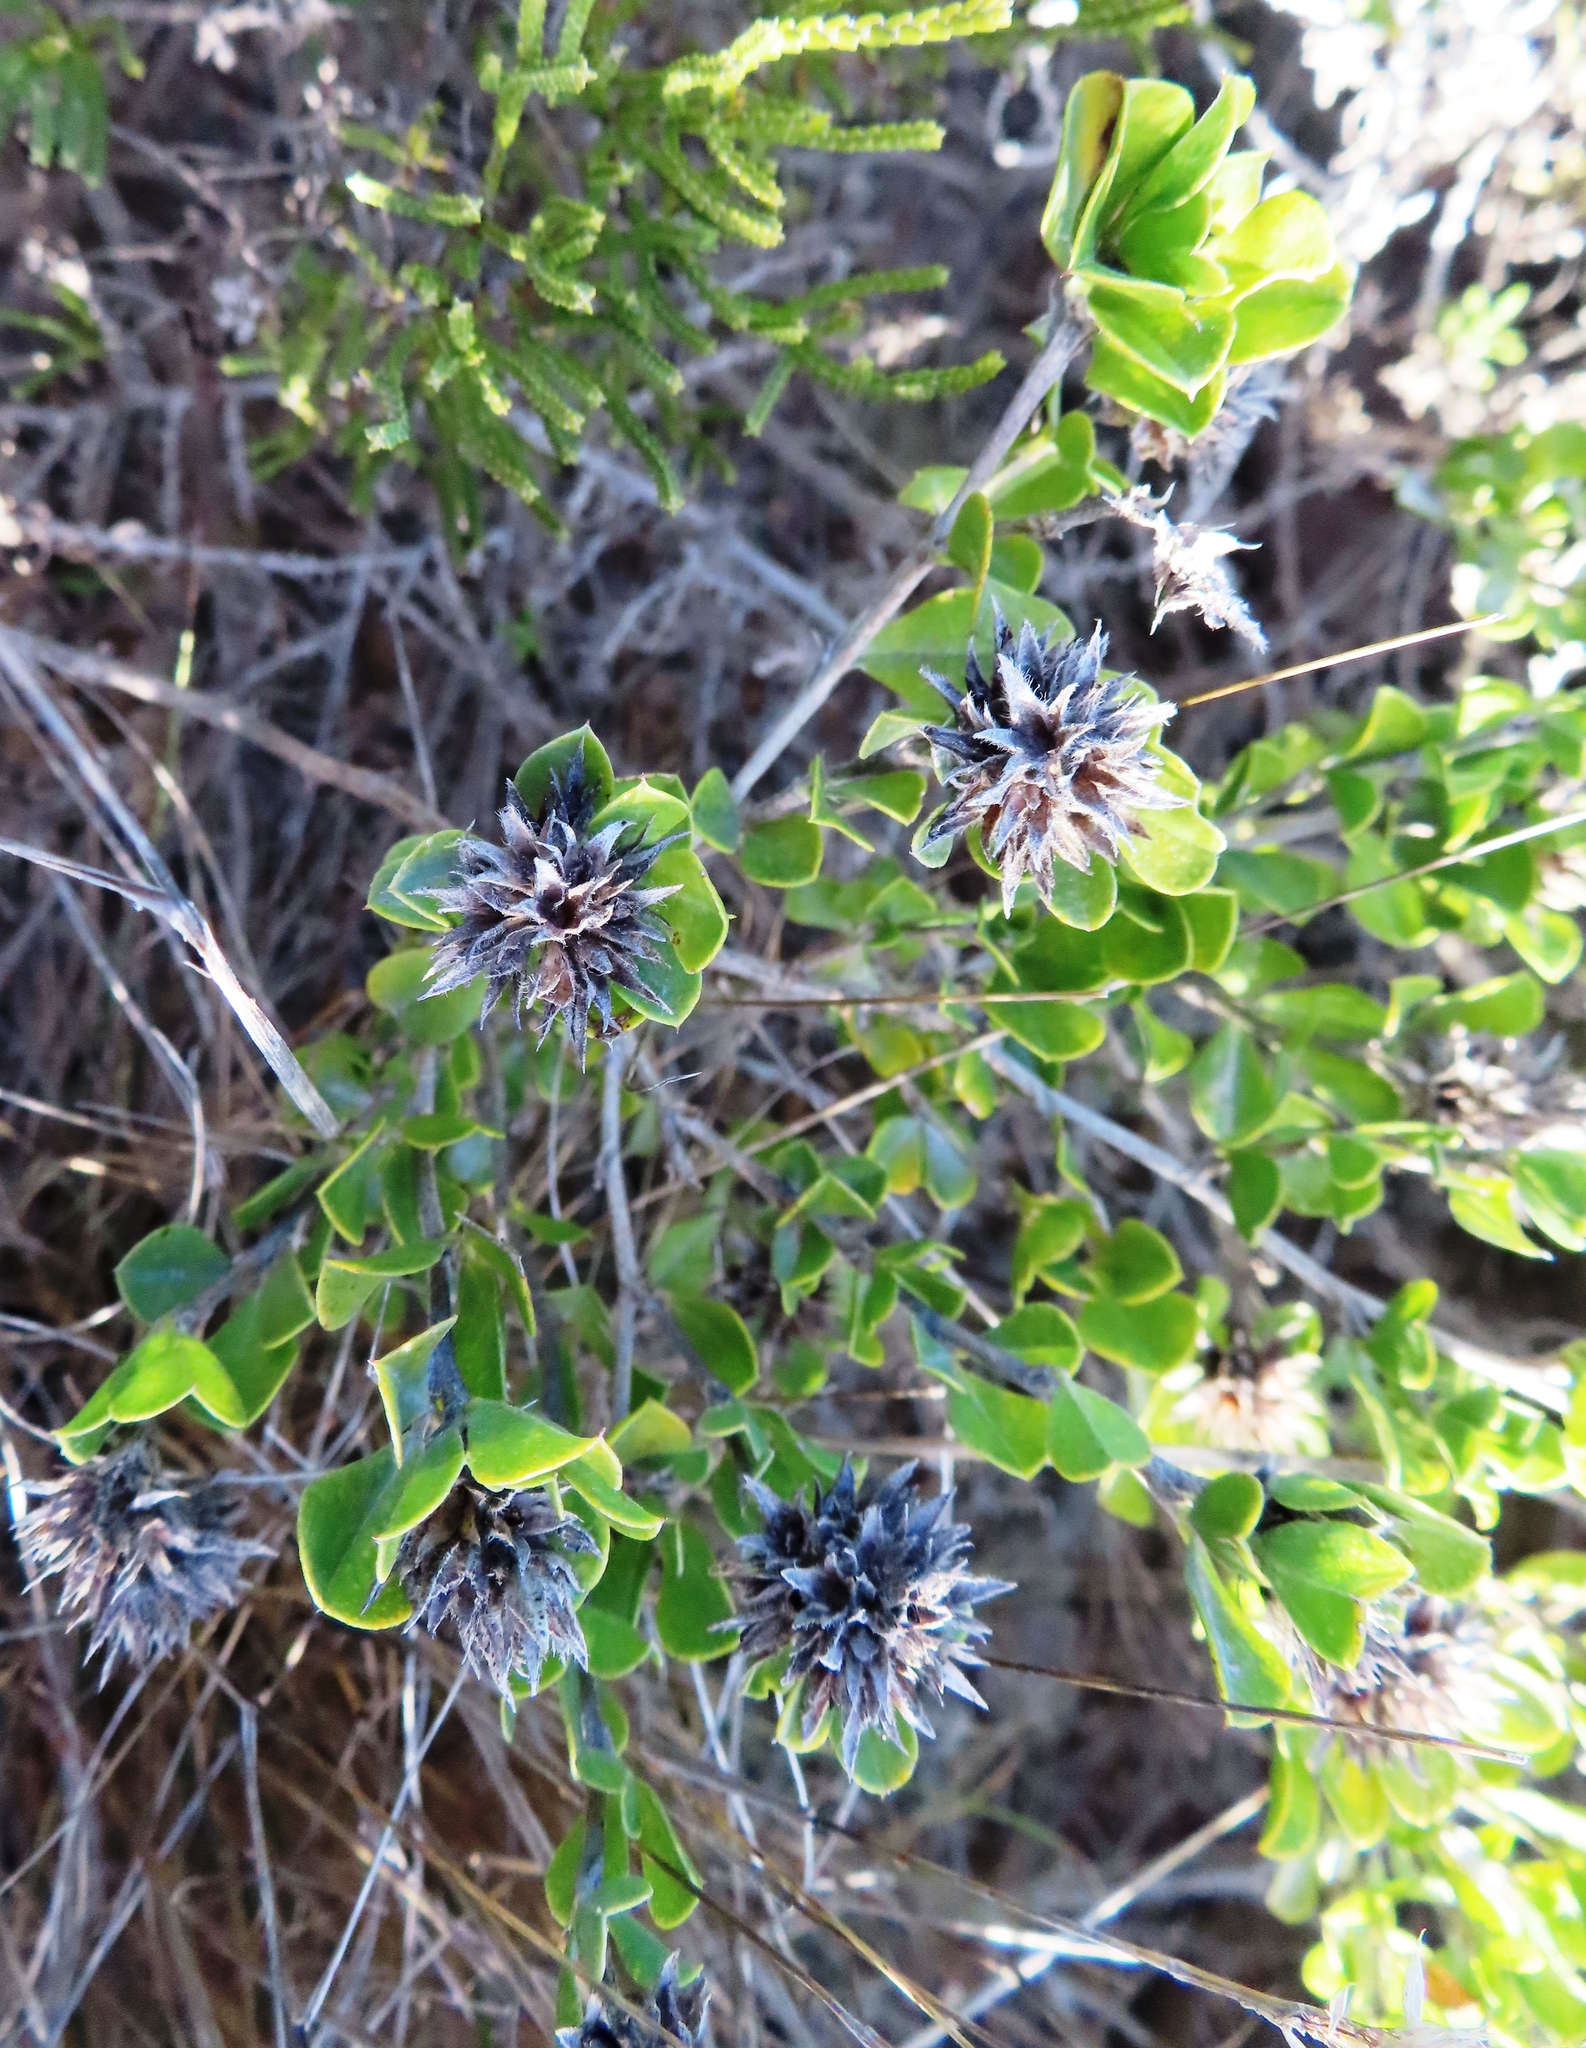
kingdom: Plantae
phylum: Tracheophyta
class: Magnoliopsida
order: Fabales
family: Fabaceae
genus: Psoralea
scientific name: Psoralea bracteolata
